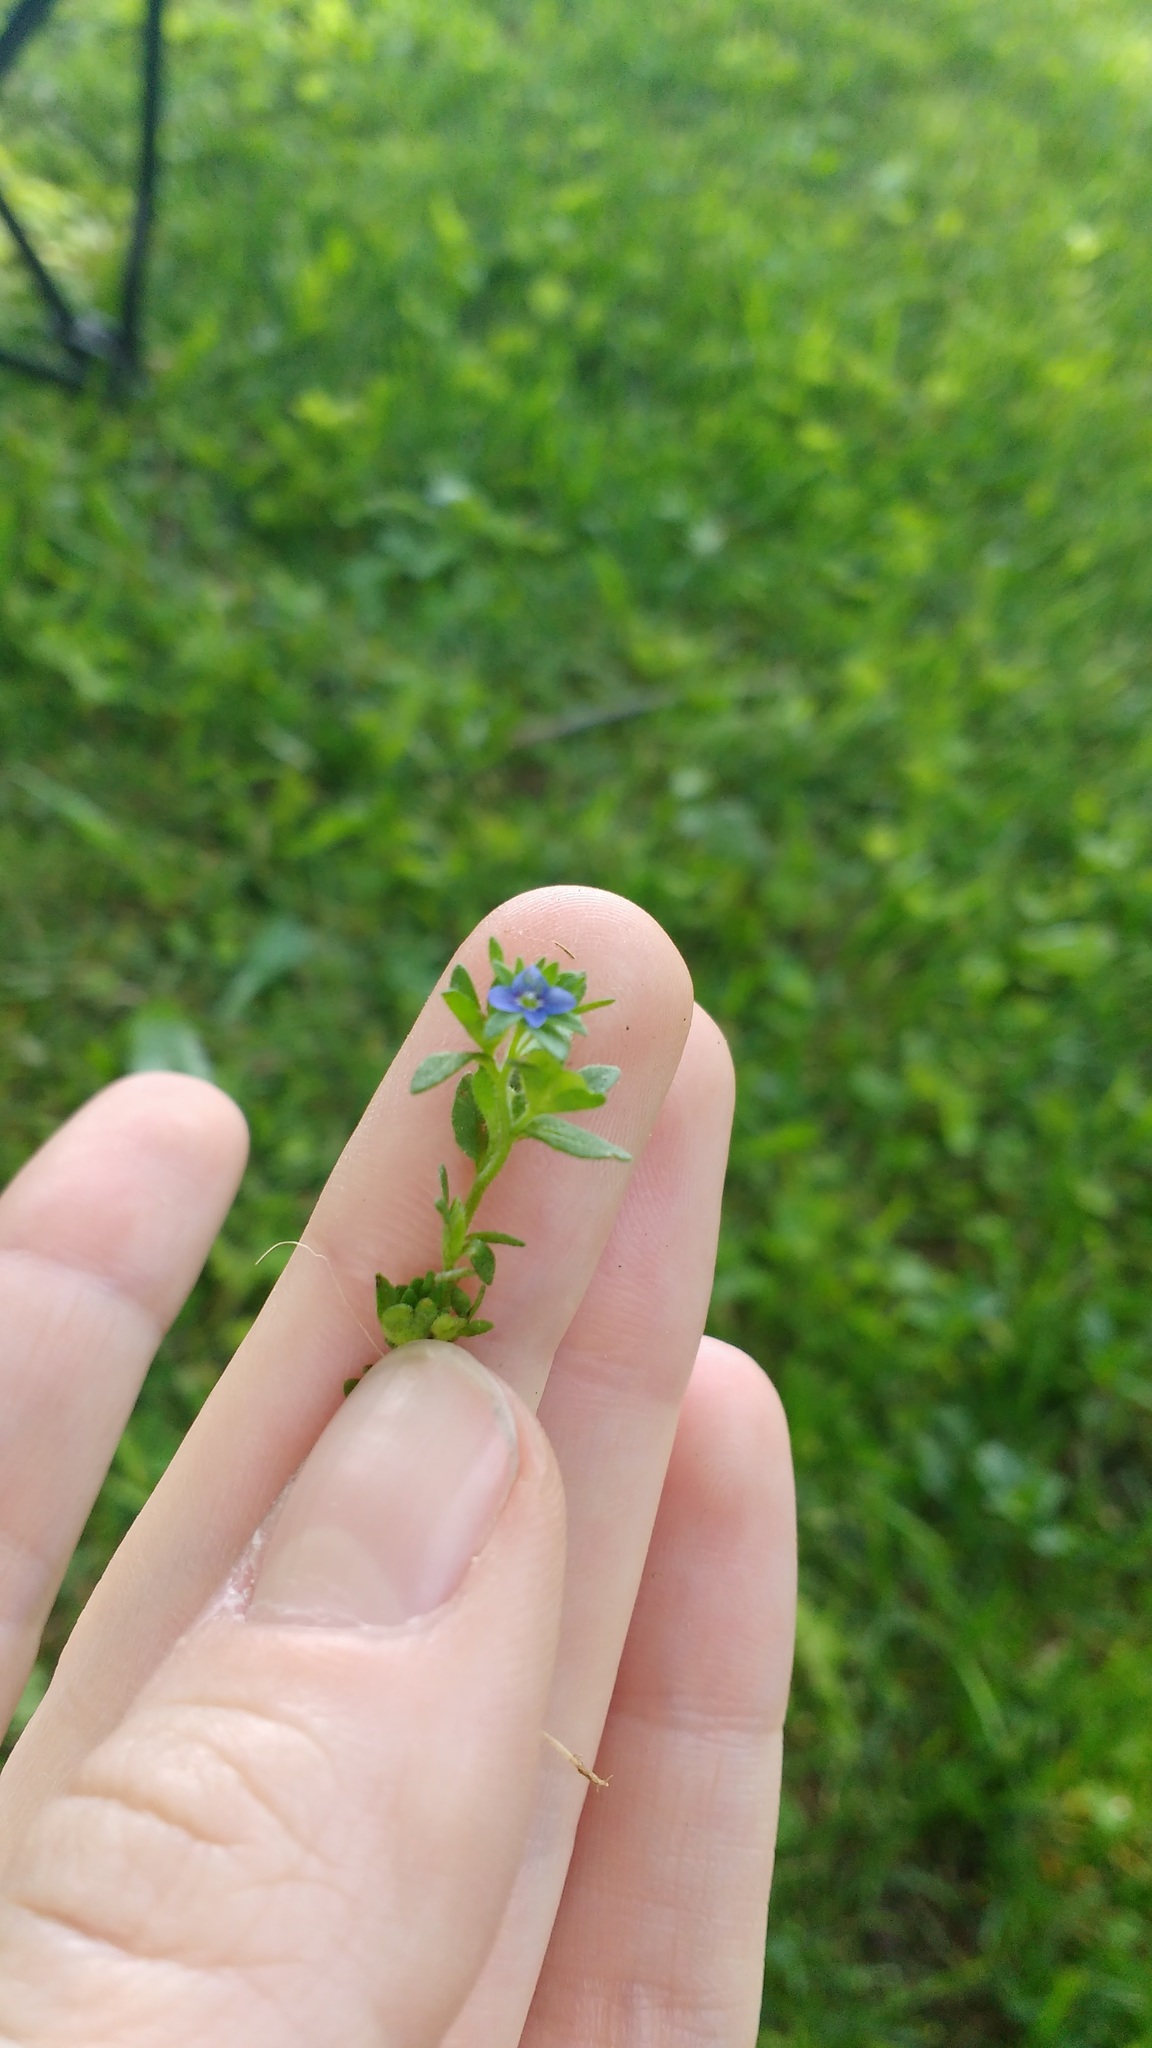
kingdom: Plantae
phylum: Tracheophyta
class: Magnoliopsida
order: Lamiales
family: Plantaginaceae
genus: Veronica
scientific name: Veronica arvensis
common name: Corn speedwell
